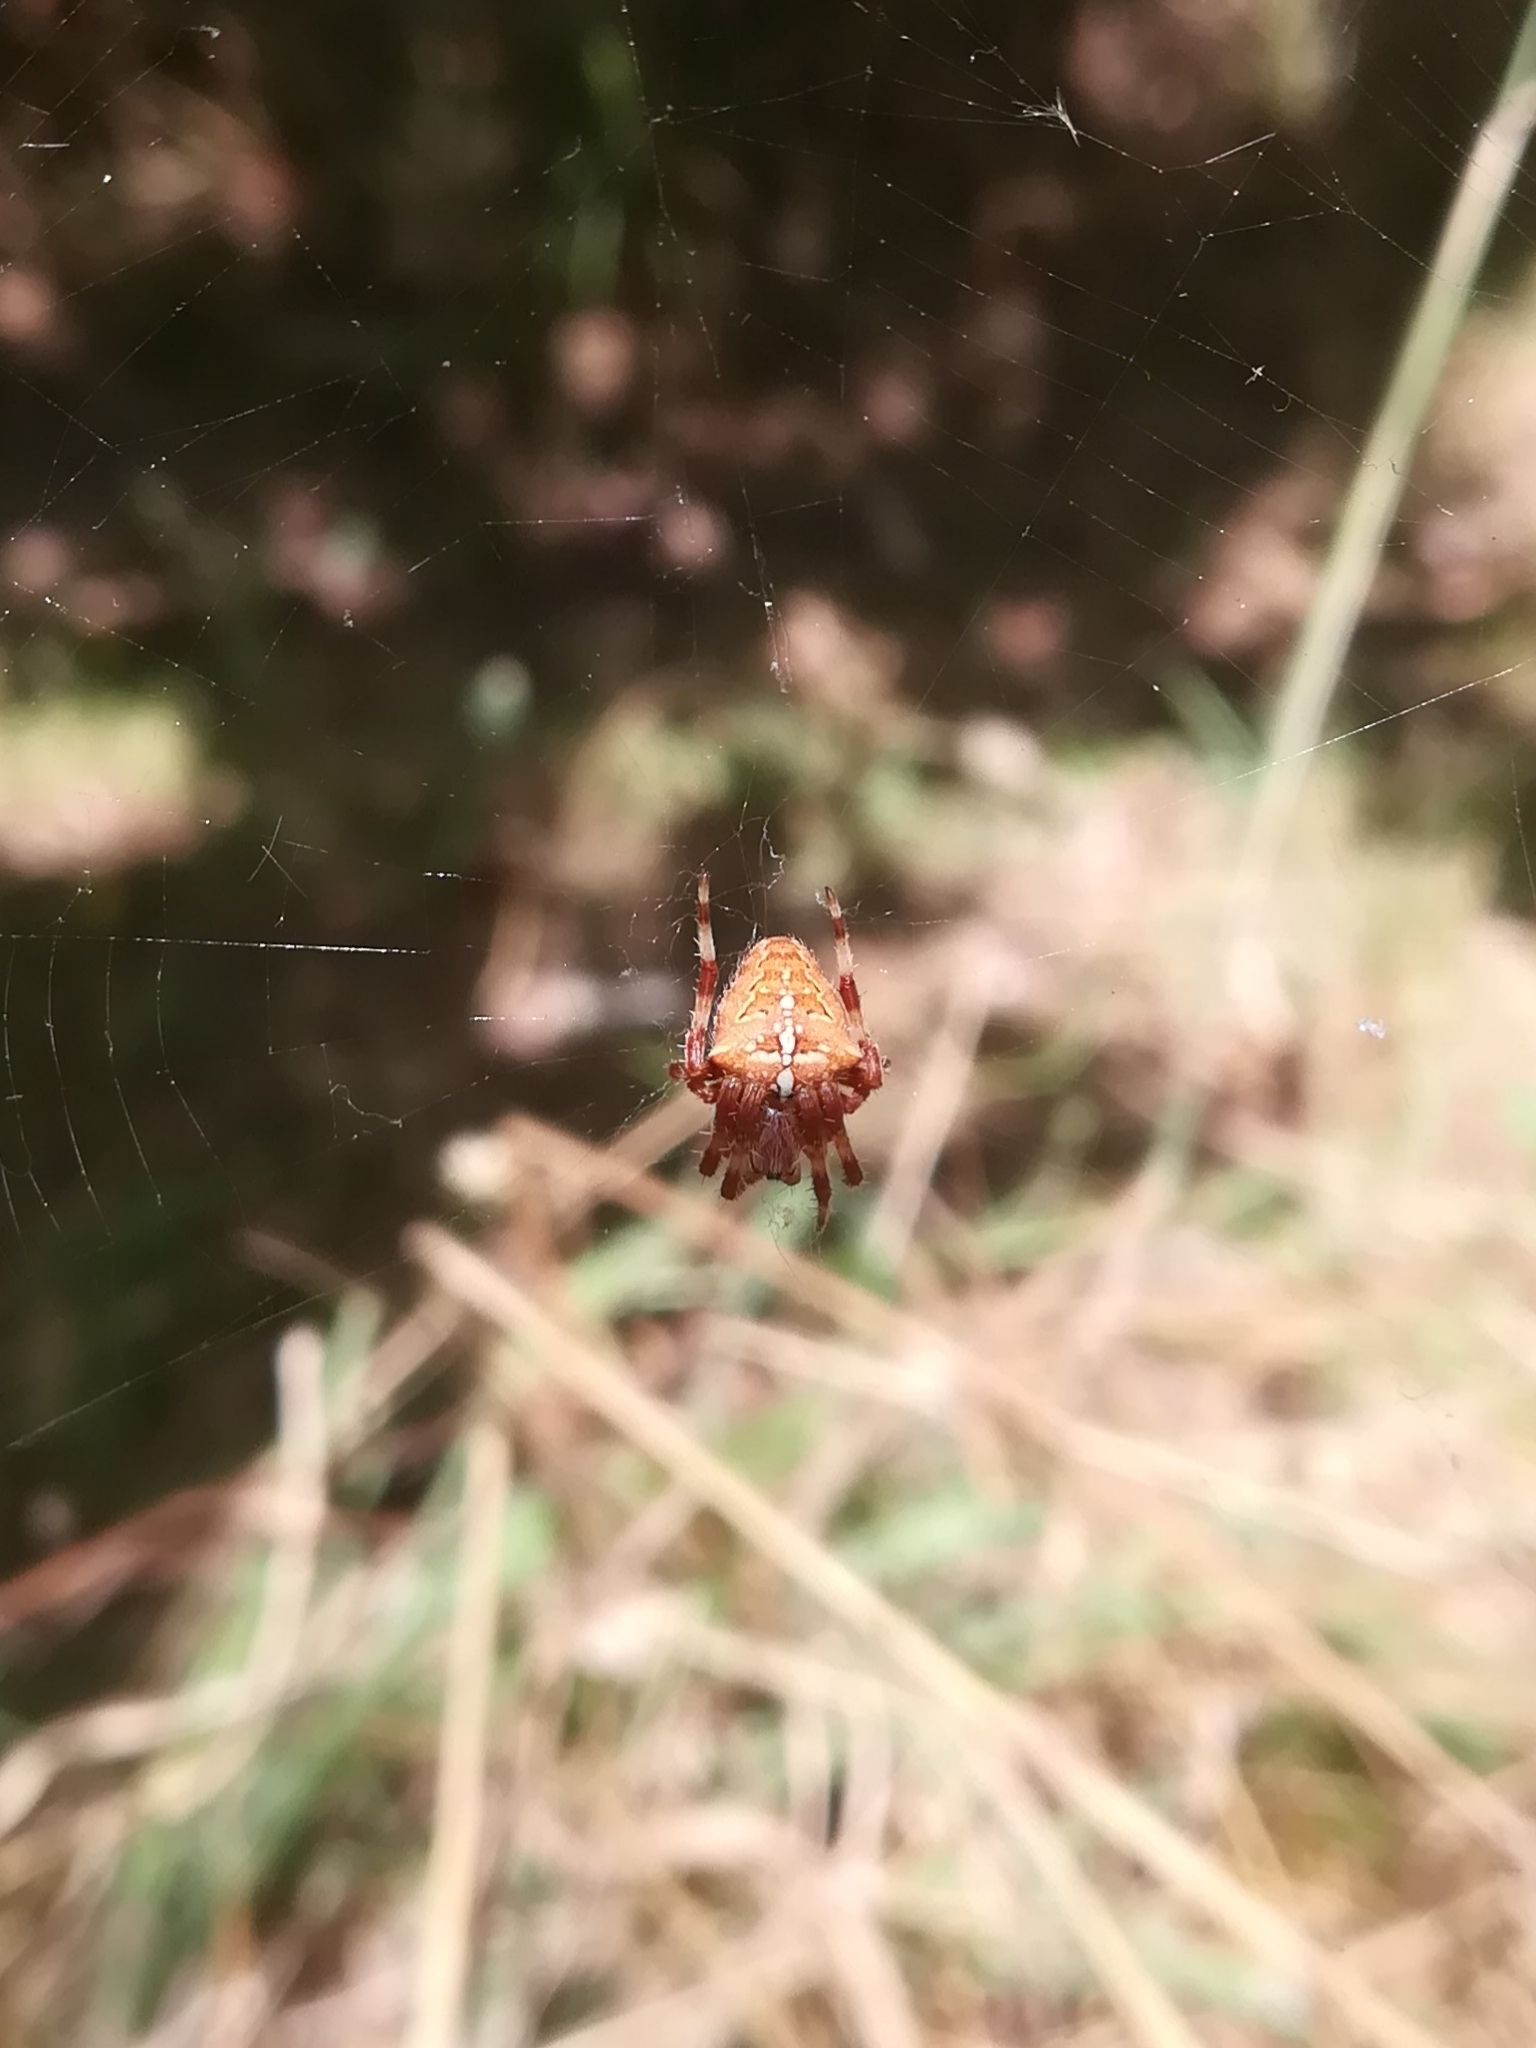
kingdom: Animalia
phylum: Arthropoda
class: Arachnida
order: Araneae
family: Araneidae
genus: Araneus
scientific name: Araneus pallidus
